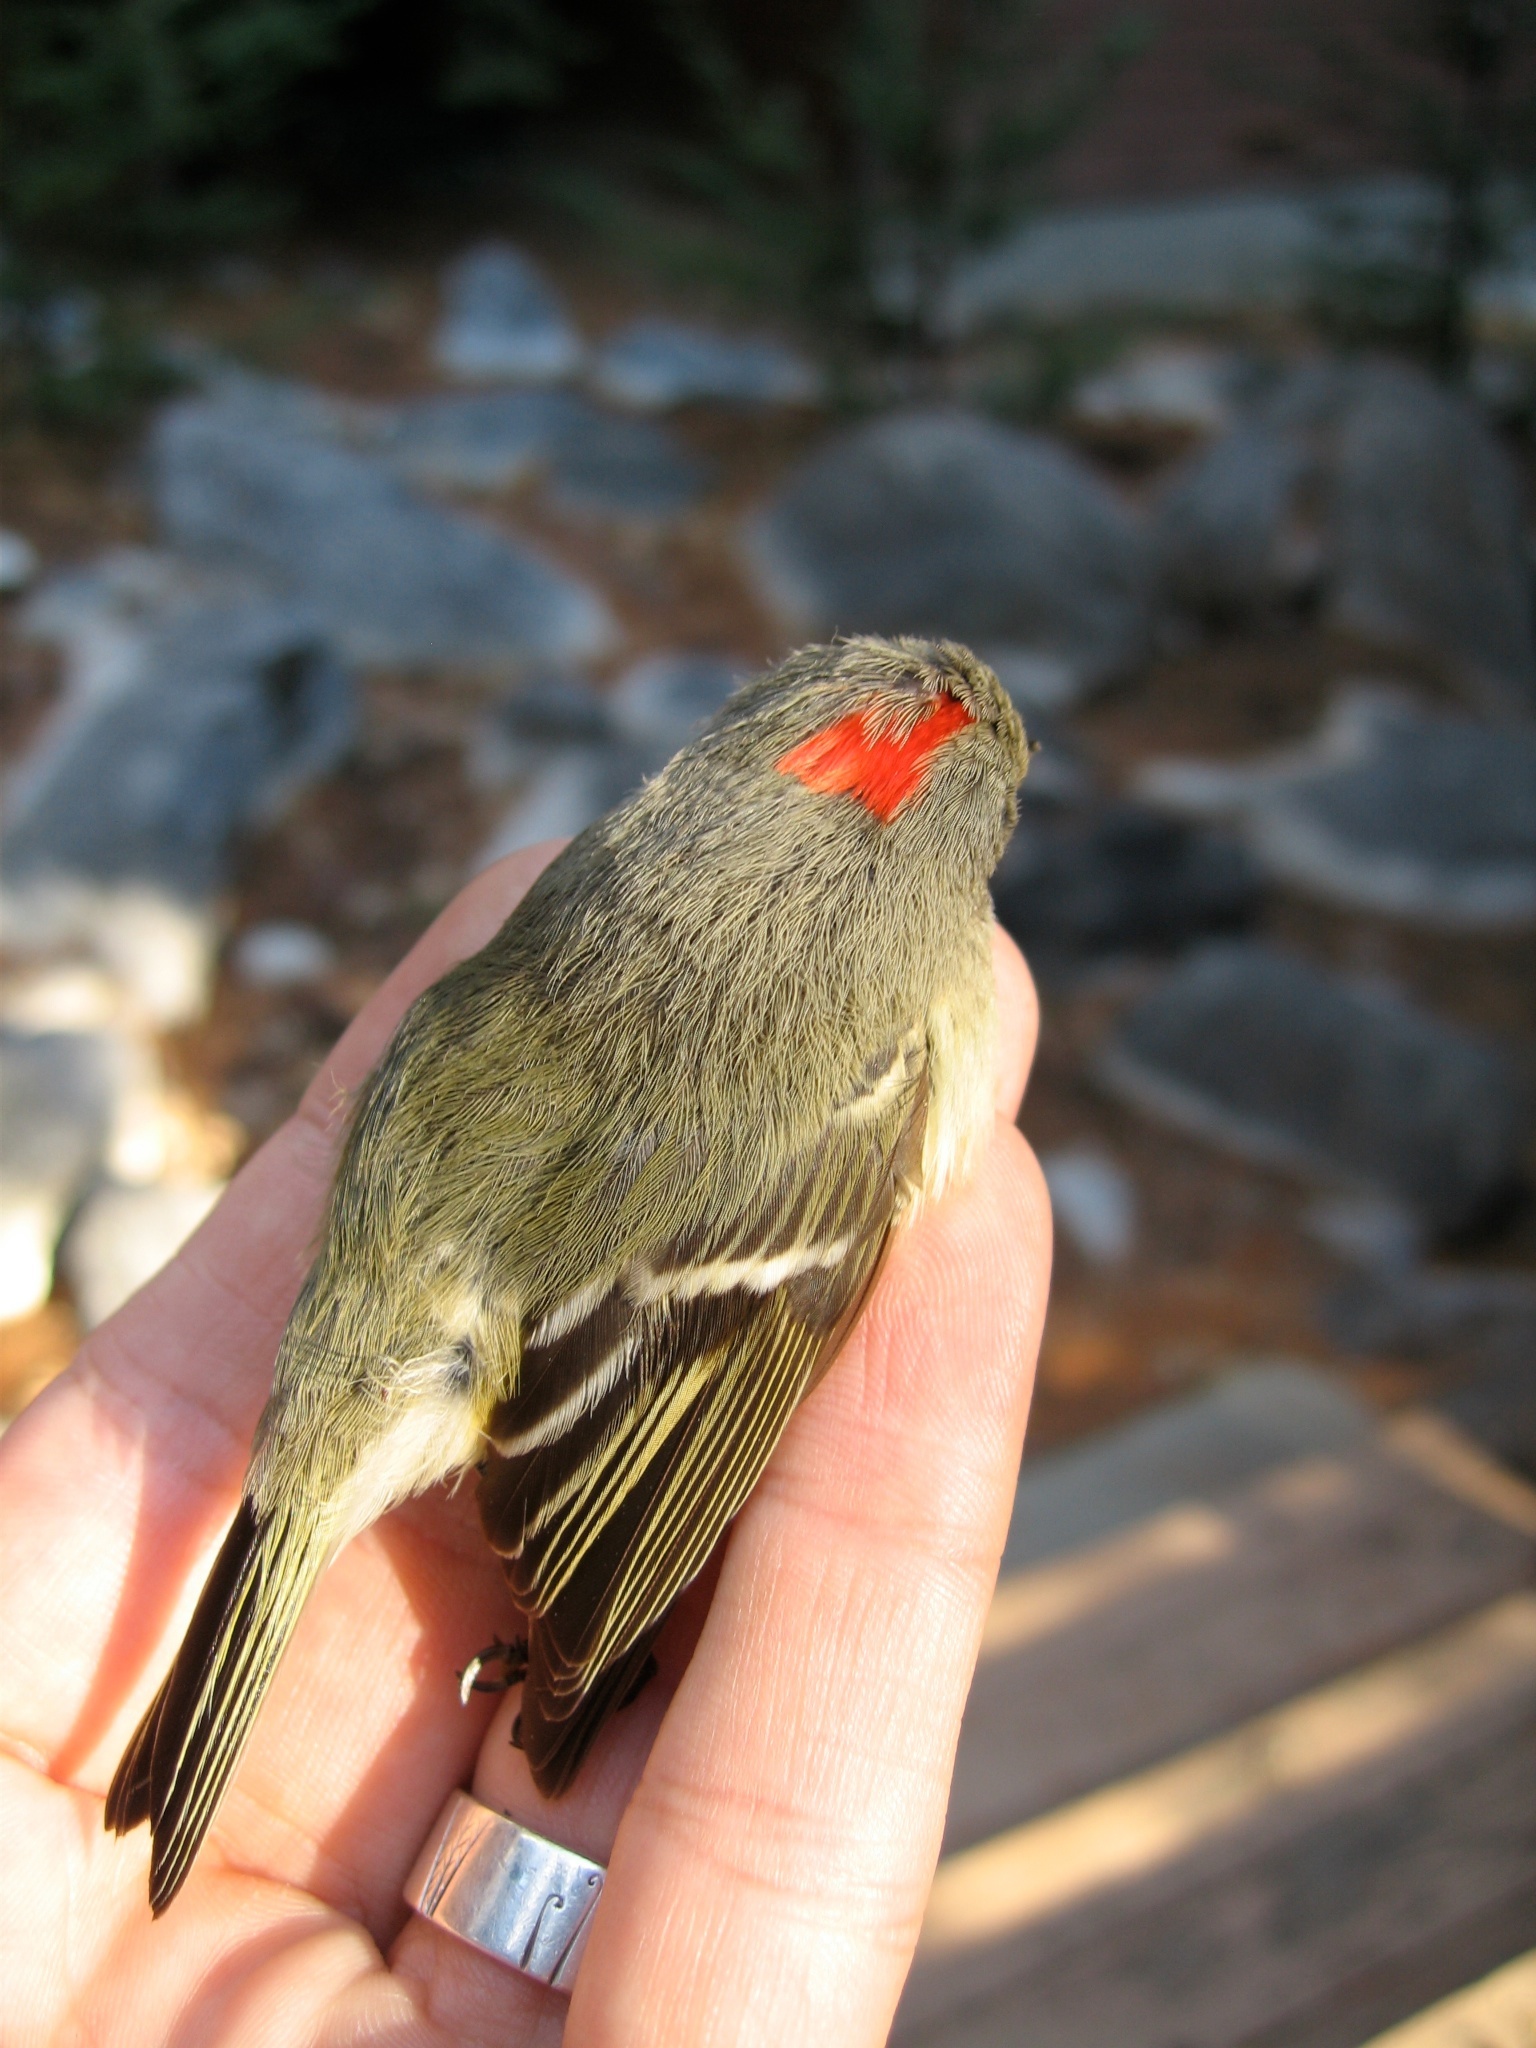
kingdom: Animalia
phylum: Chordata
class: Aves
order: Passeriformes
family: Regulidae
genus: Regulus
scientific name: Regulus calendula
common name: Ruby-crowned kinglet
